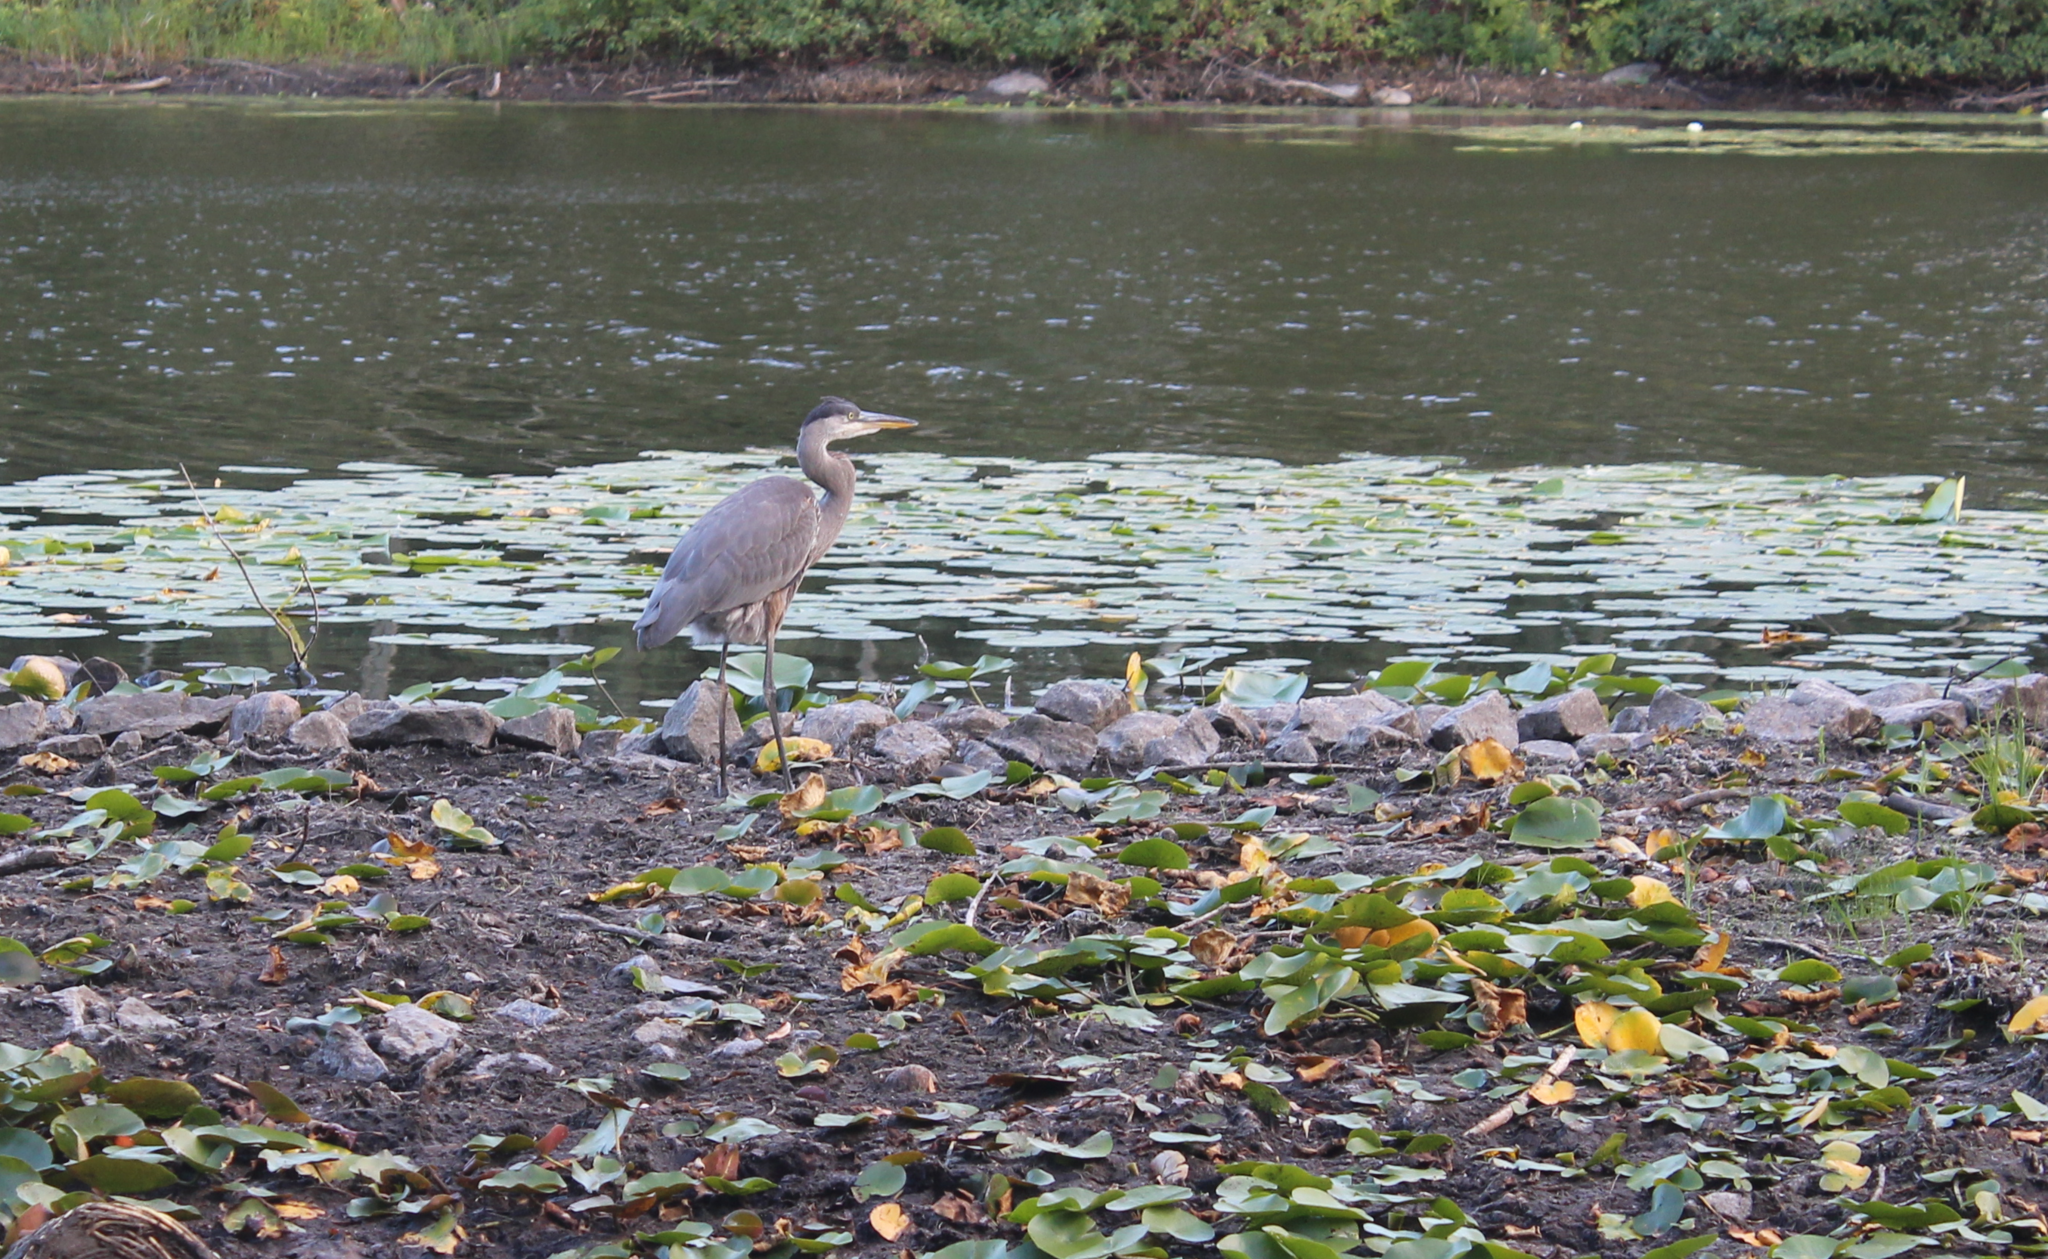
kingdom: Animalia
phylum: Chordata
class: Aves
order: Pelecaniformes
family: Ardeidae
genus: Ardea
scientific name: Ardea herodias
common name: Great blue heron
